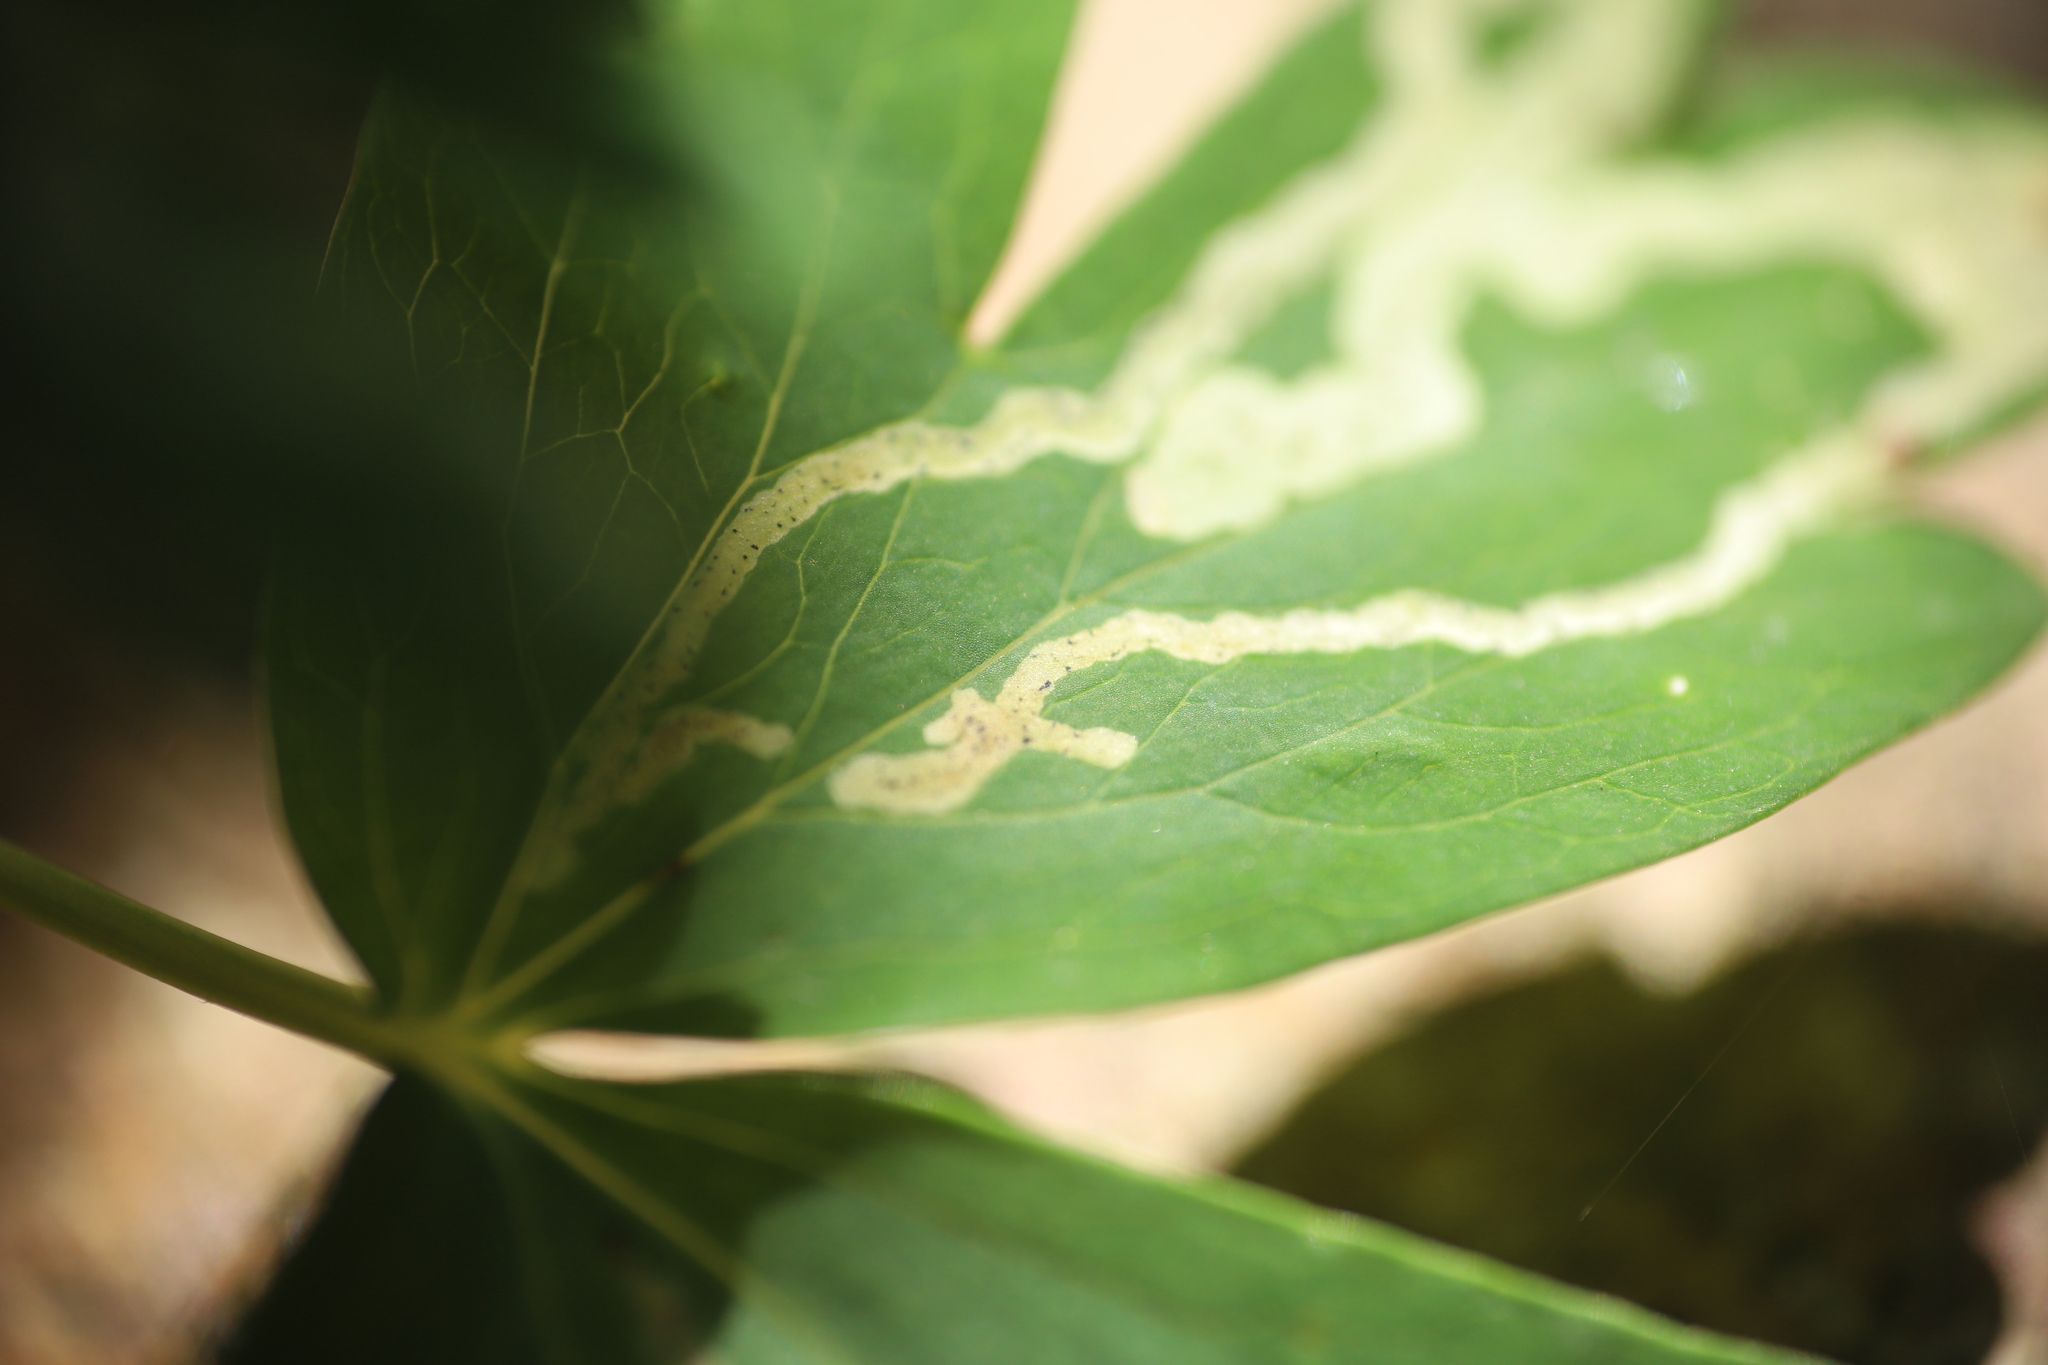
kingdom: Animalia
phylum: Arthropoda
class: Insecta
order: Diptera
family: Agromyzidae
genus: Phytomyza
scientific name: Phytomyza
